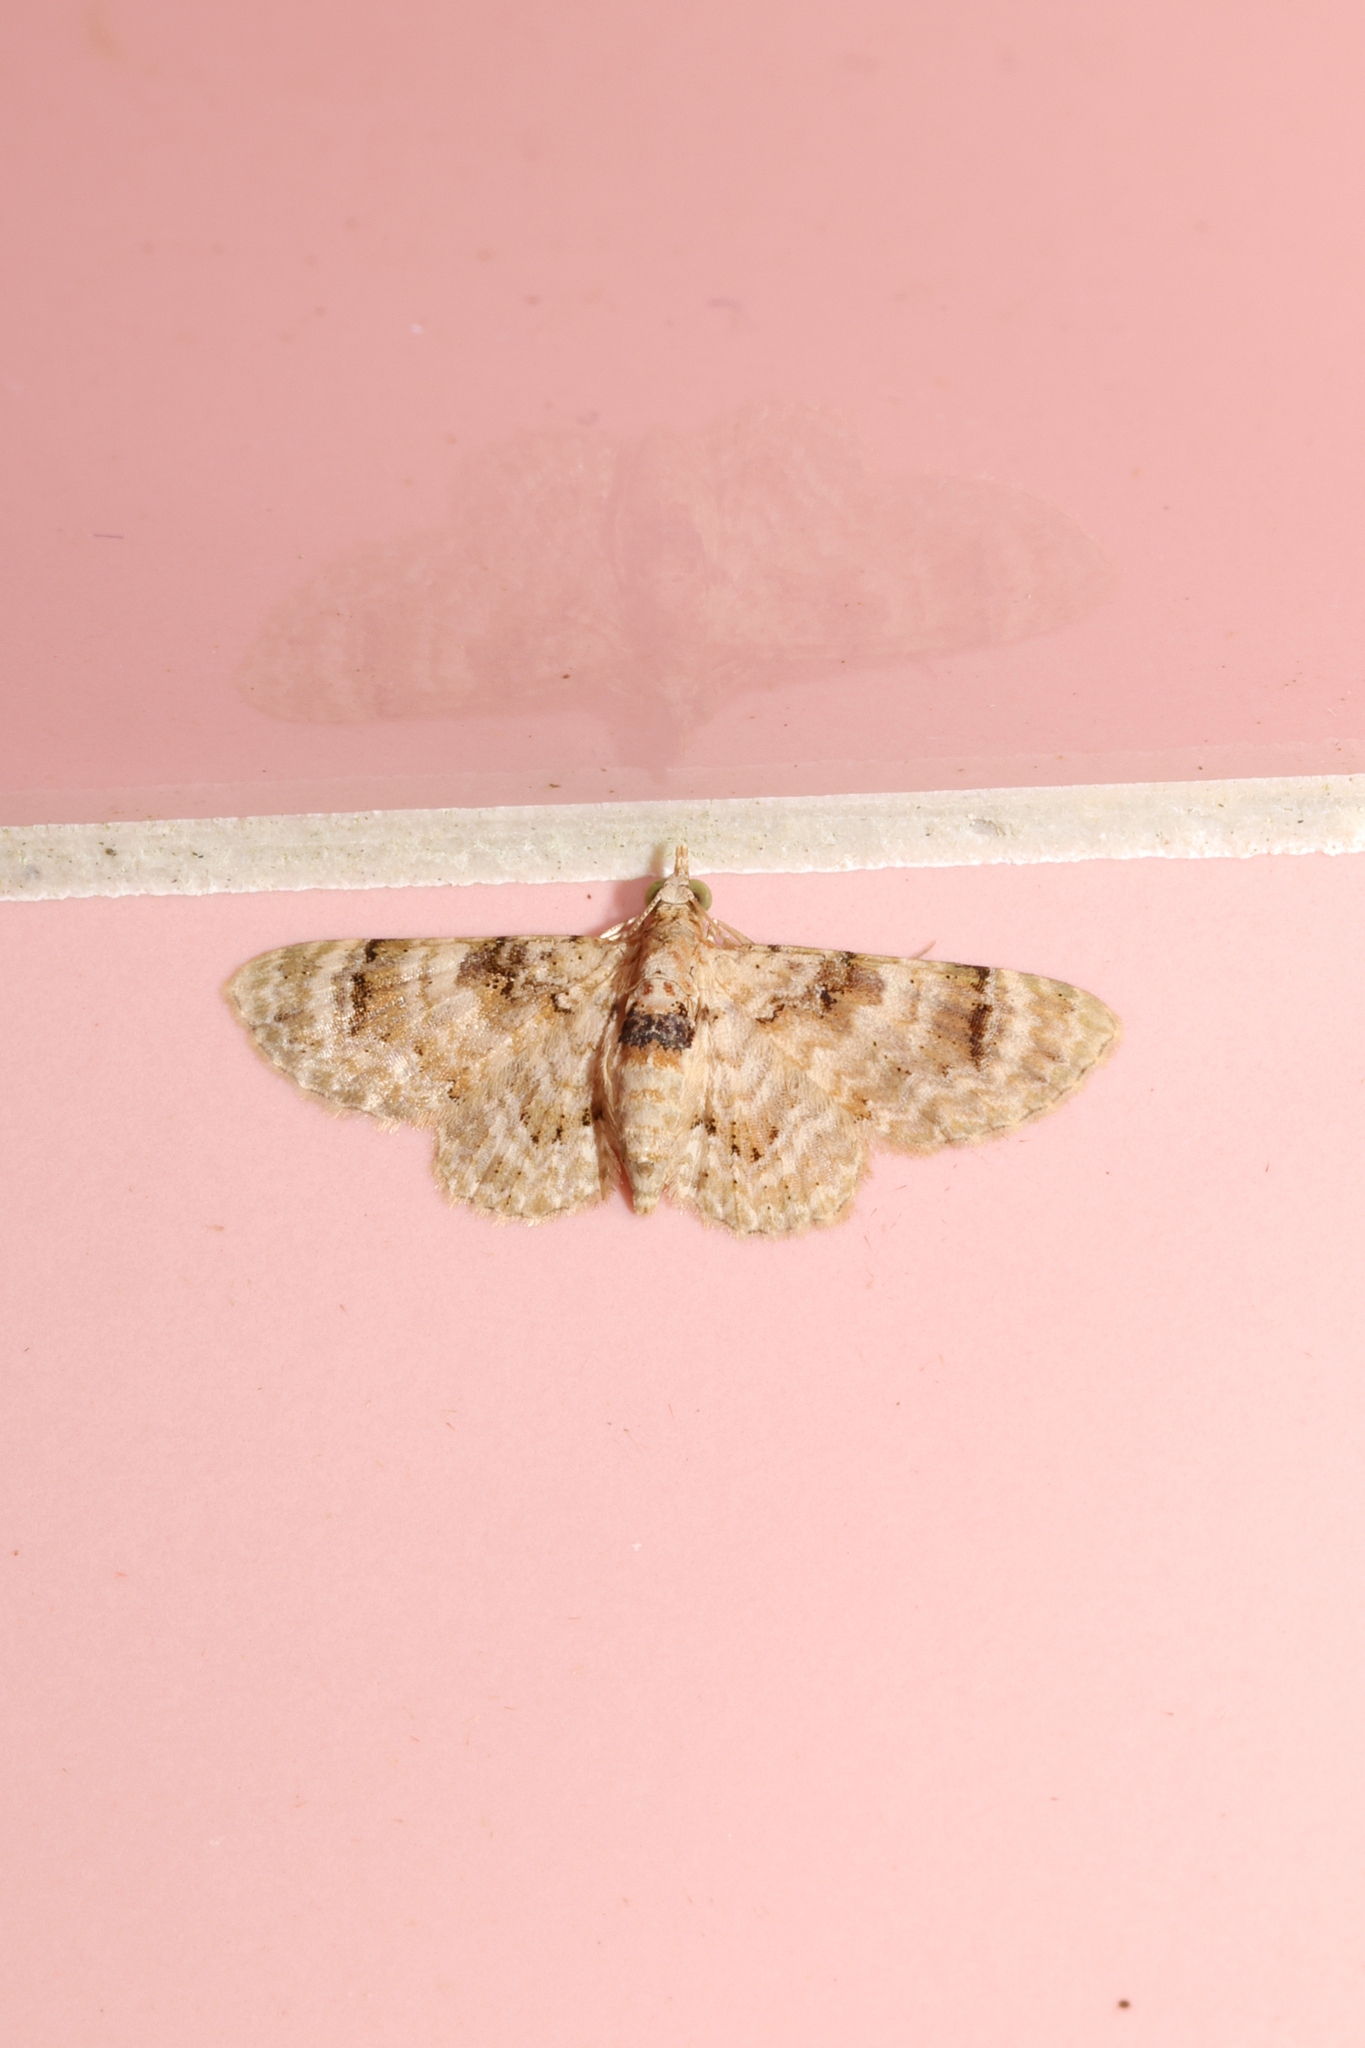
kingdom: Animalia
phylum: Arthropoda
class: Insecta
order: Lepidoptera
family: Geometridae
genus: Gymnoscelis
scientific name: Gymnoscelis admixtaria
